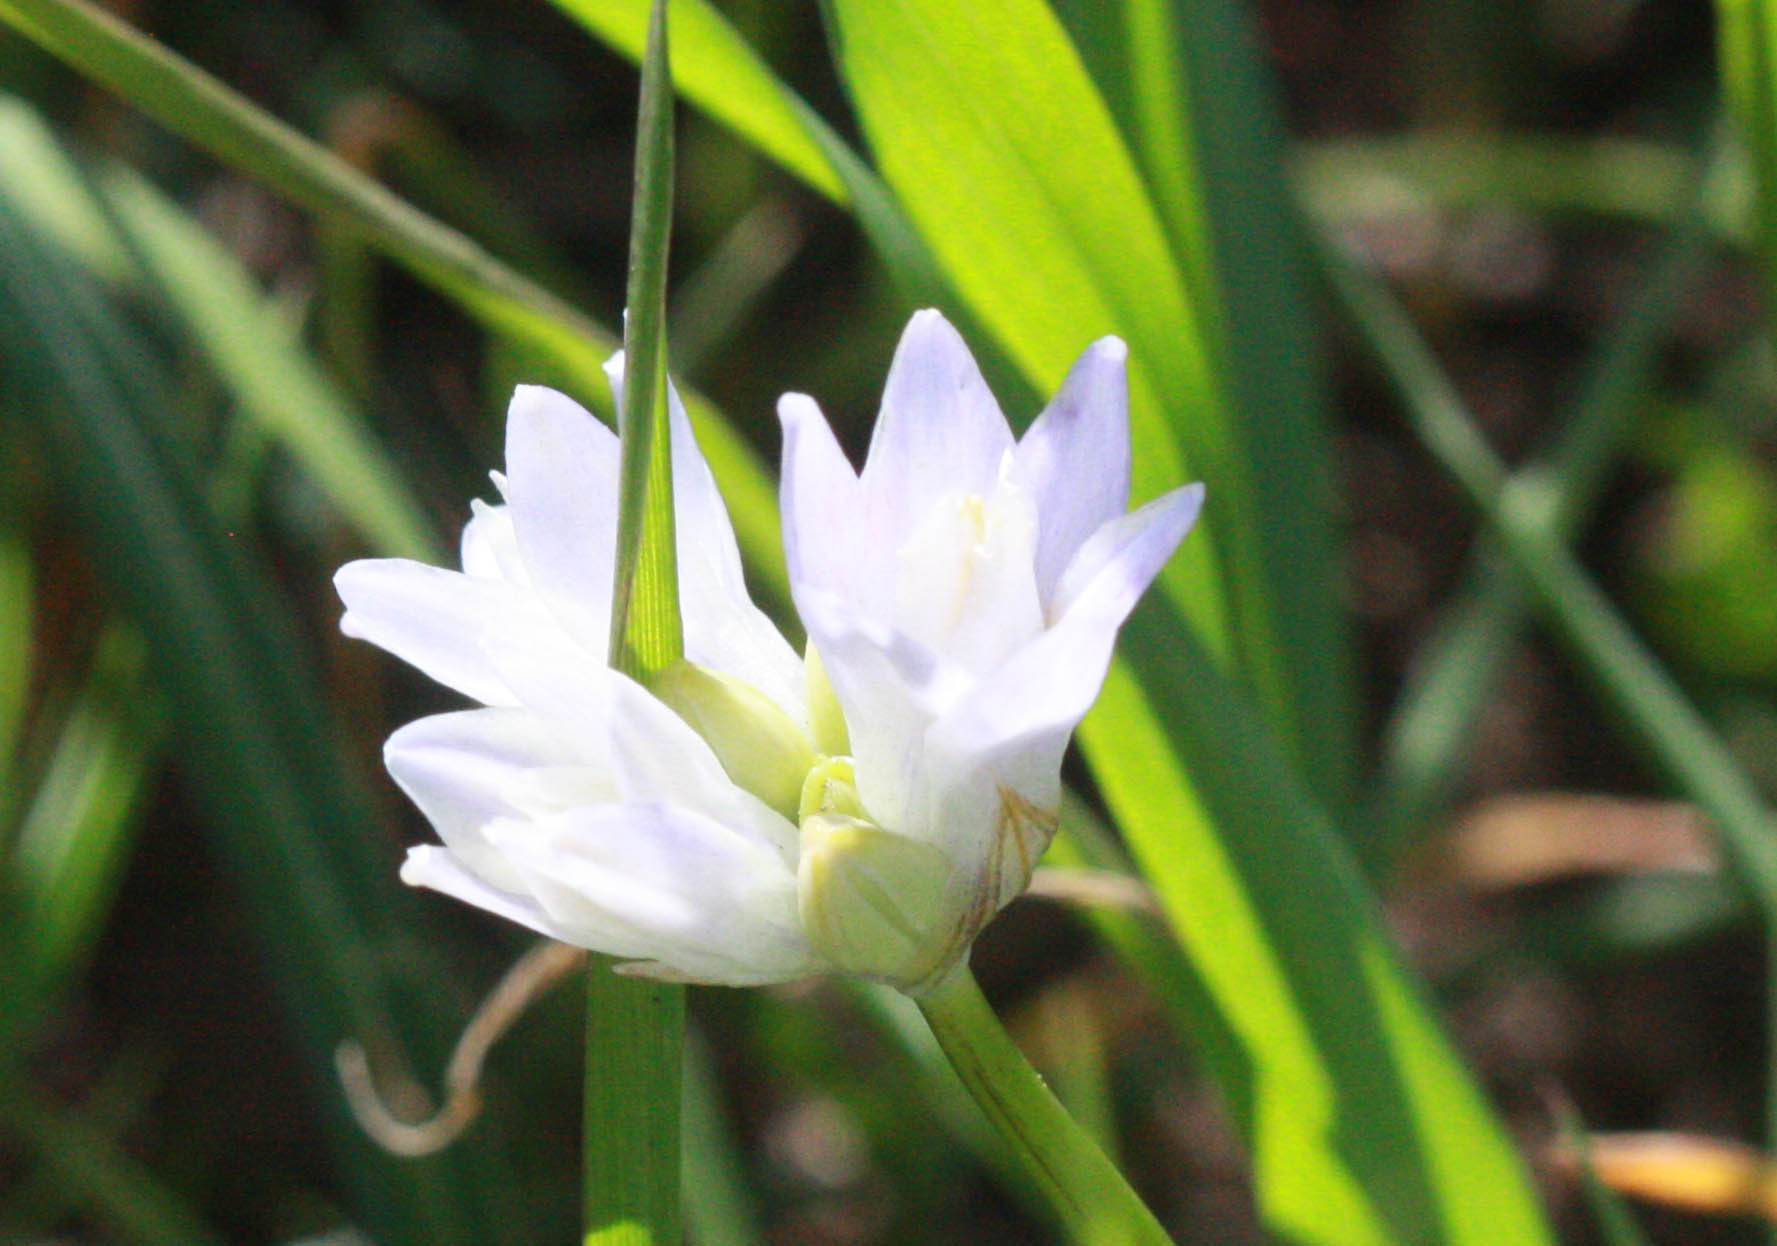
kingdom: Plantae
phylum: Tracheophyta
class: Liliopsida
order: Asparagales
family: Asparagaceae
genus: Dipterostemon
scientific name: Dipterostemon capitatus
